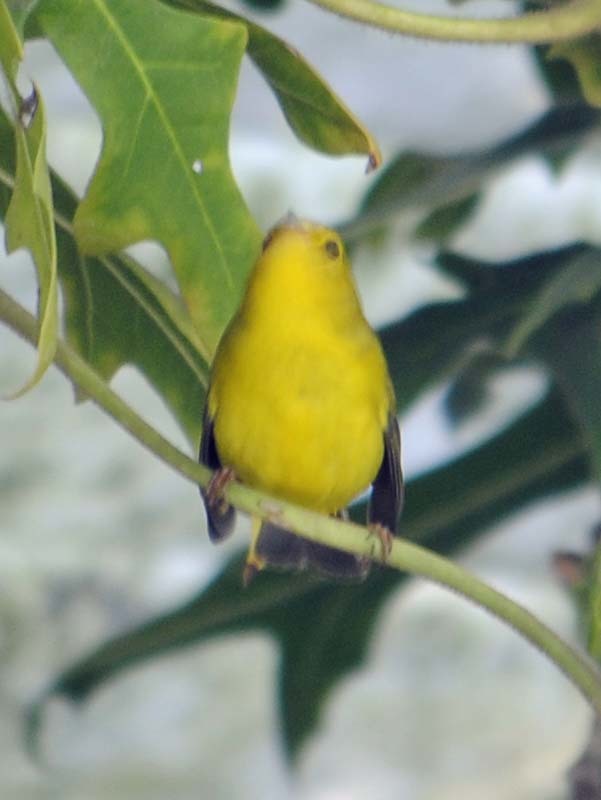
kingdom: Animalia
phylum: Chordata
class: Aves
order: Passeriformes
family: Parulidae
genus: Cardellina
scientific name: Cardellina pusilla
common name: Wilson's warbler
